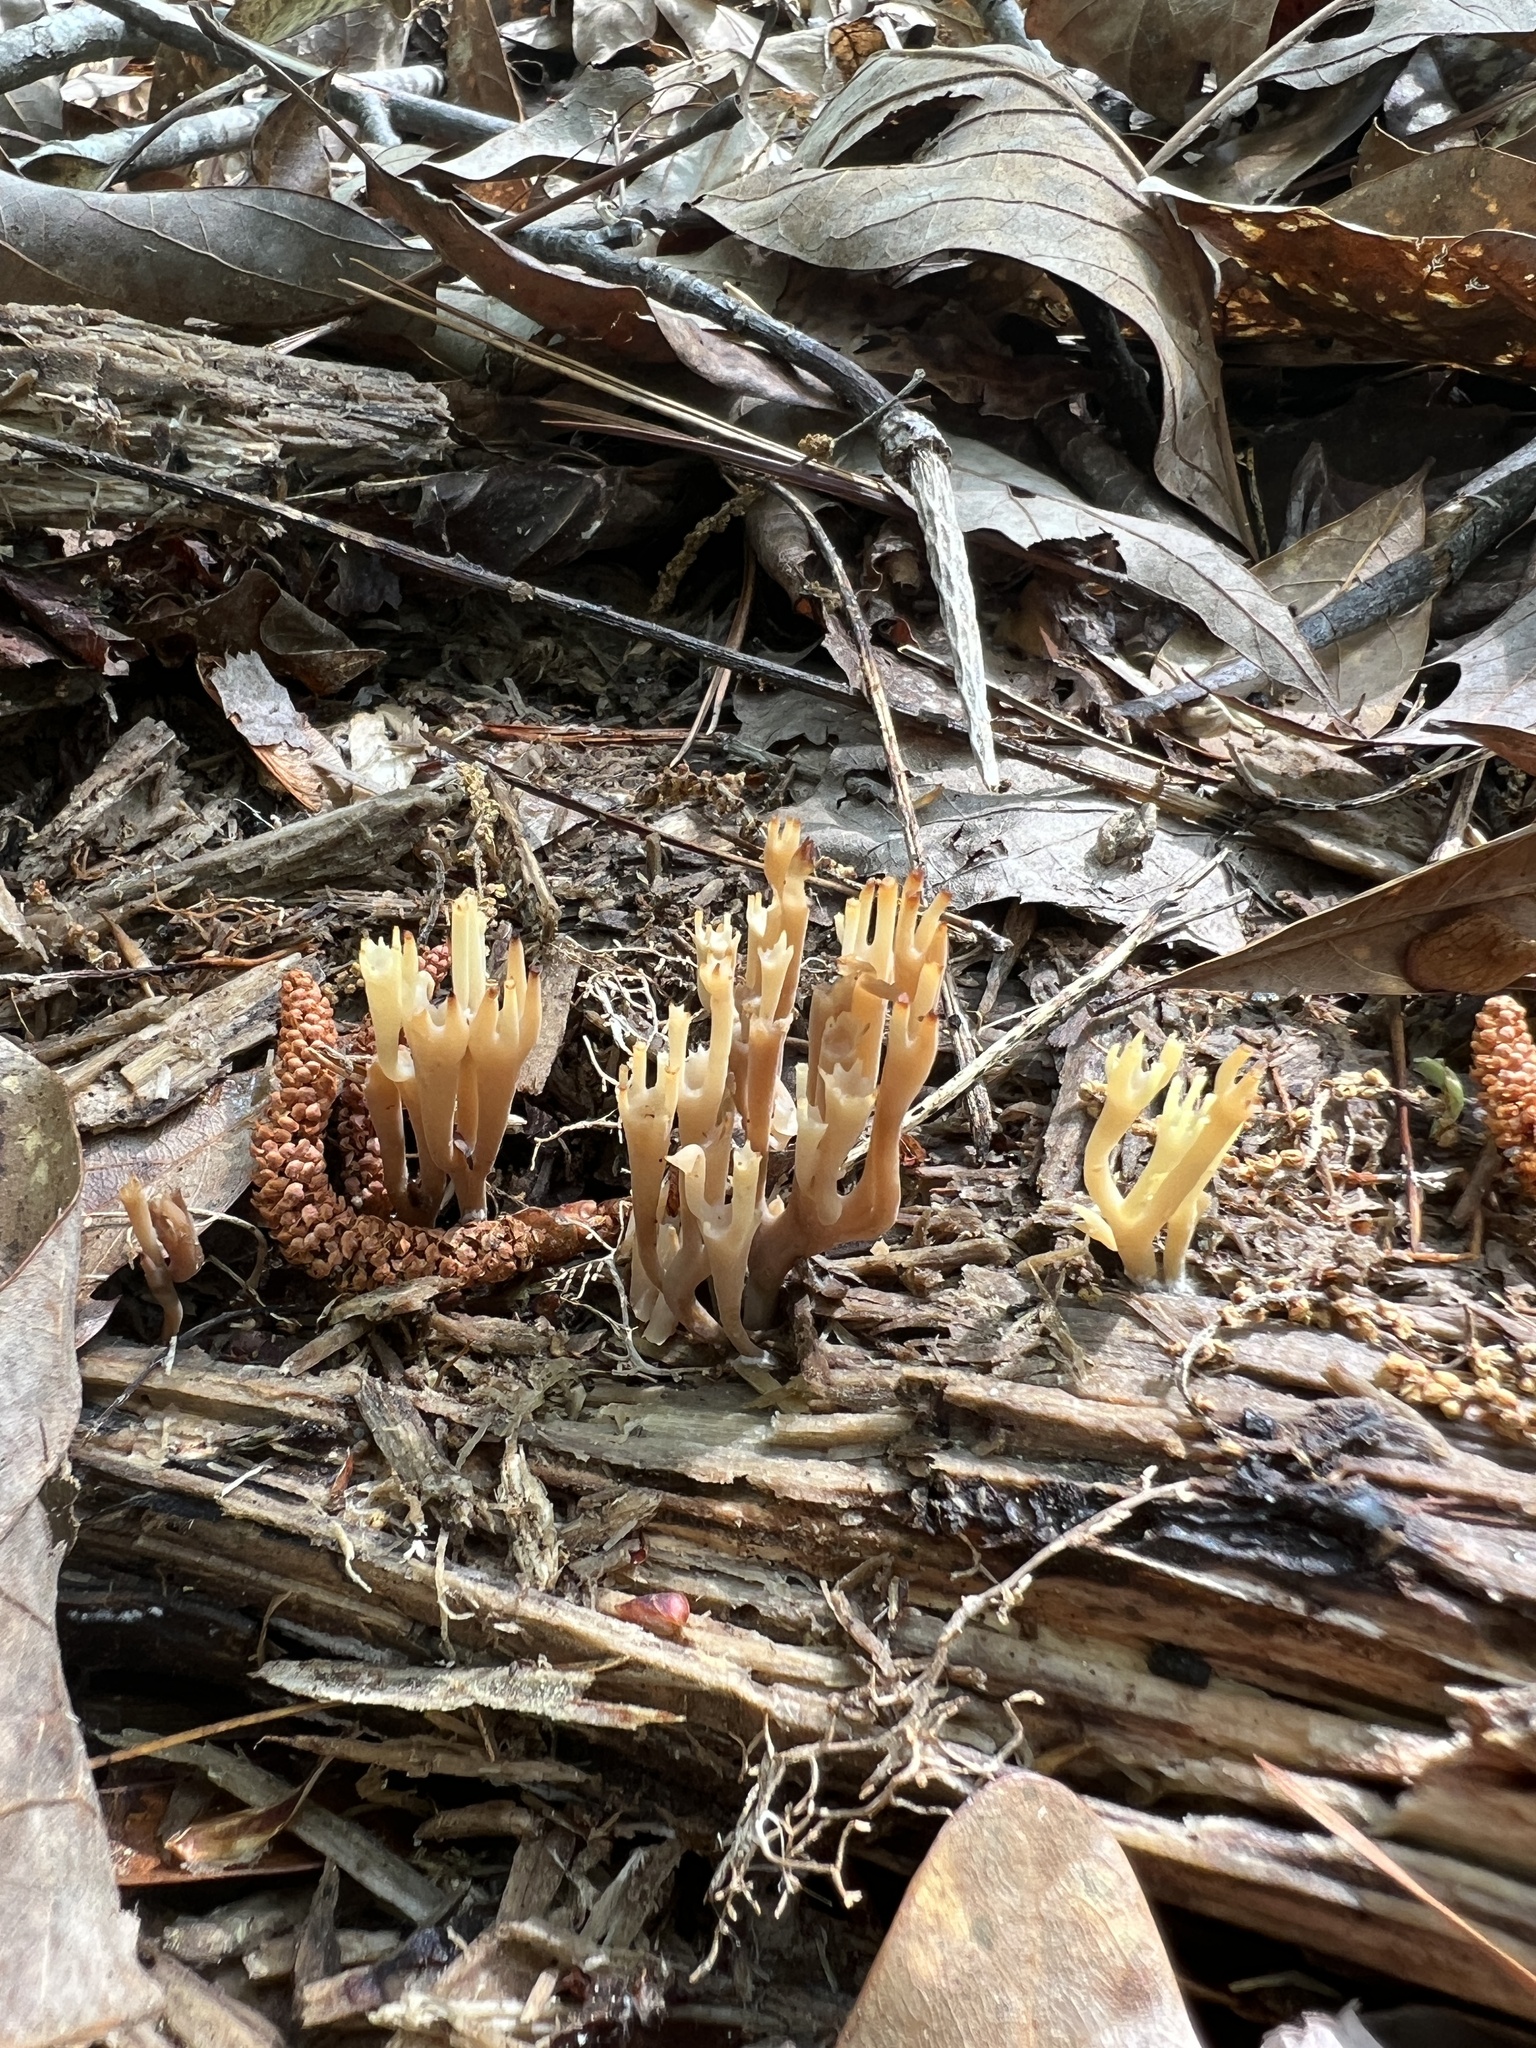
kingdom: Fungi
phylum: Basidiomycota
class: Agaricomycetes
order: Russulales
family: Auriscalpiaceae
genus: Artomyces
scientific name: Artomyces pyxidatus
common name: Crown-tipped coral fungus
